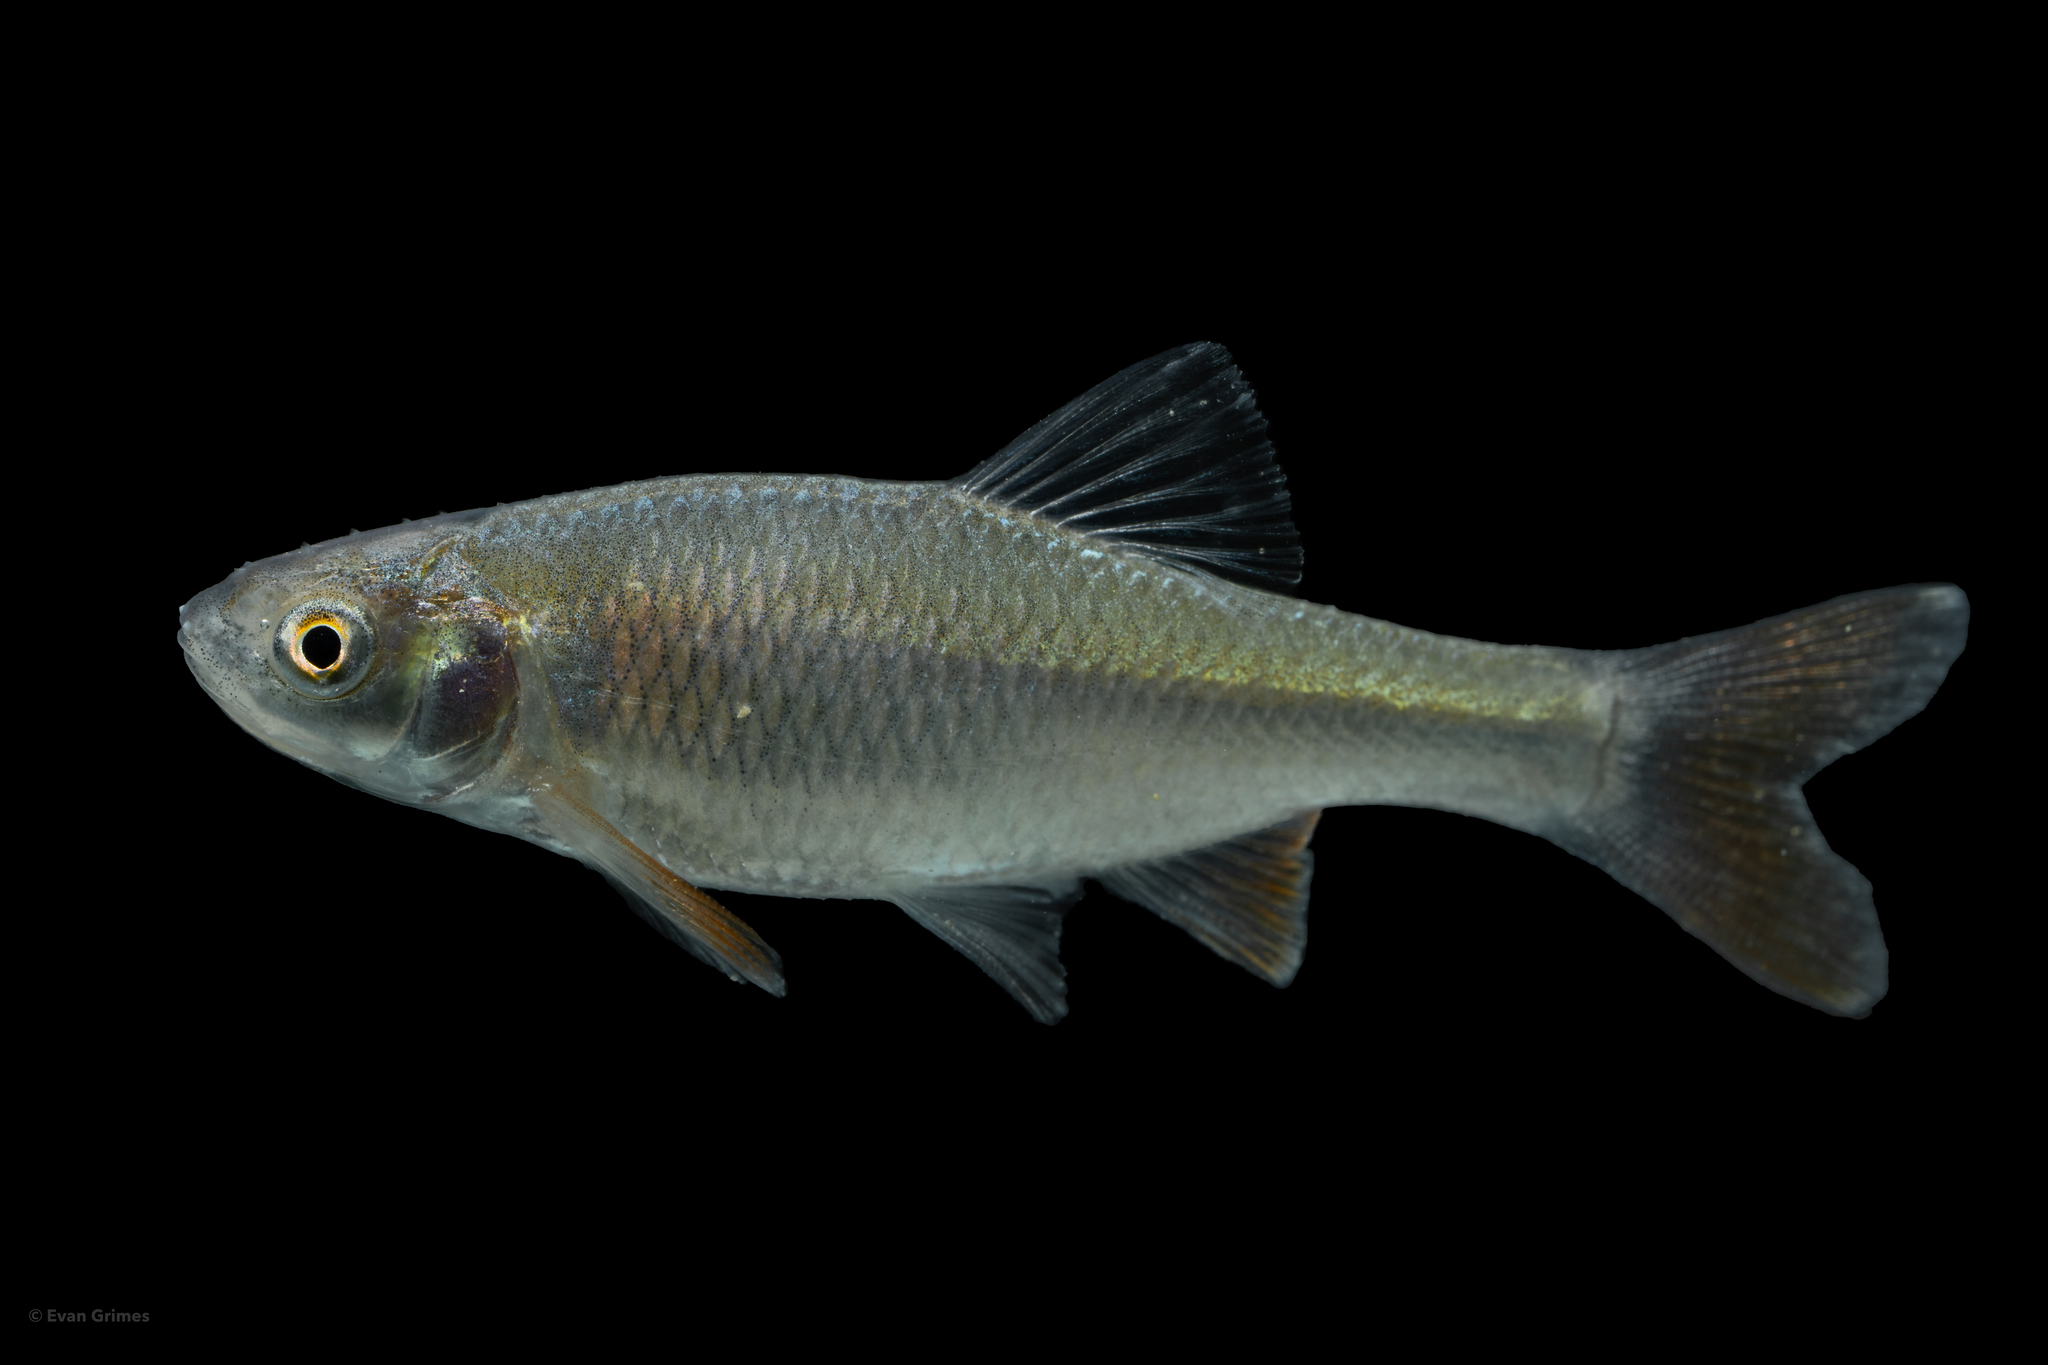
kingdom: Animalia
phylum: Chordata
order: Cypriniformes
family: Cyprinidae
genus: Cyprinella
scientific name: Cyprinella lutrensis
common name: Red shiner
